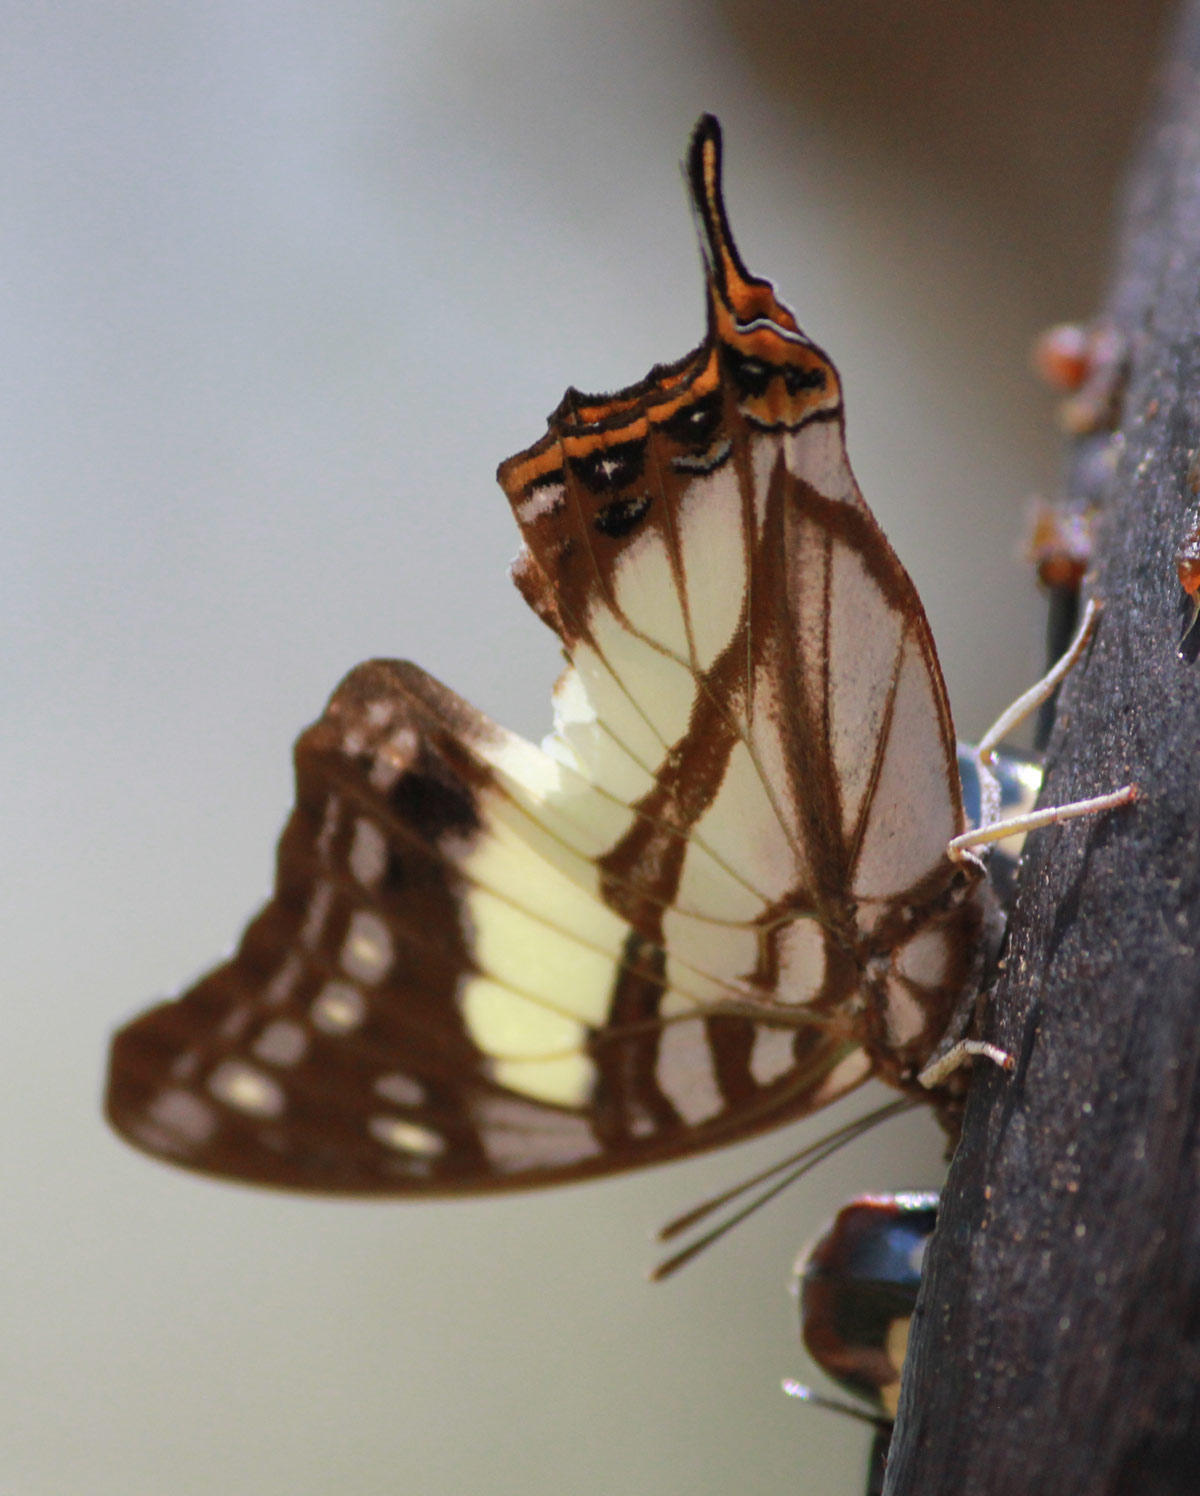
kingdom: Animalia
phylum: Arthropoda
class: Insecta
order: Lepidoptera
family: Nymphalidae
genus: Polyura
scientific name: Polyura
